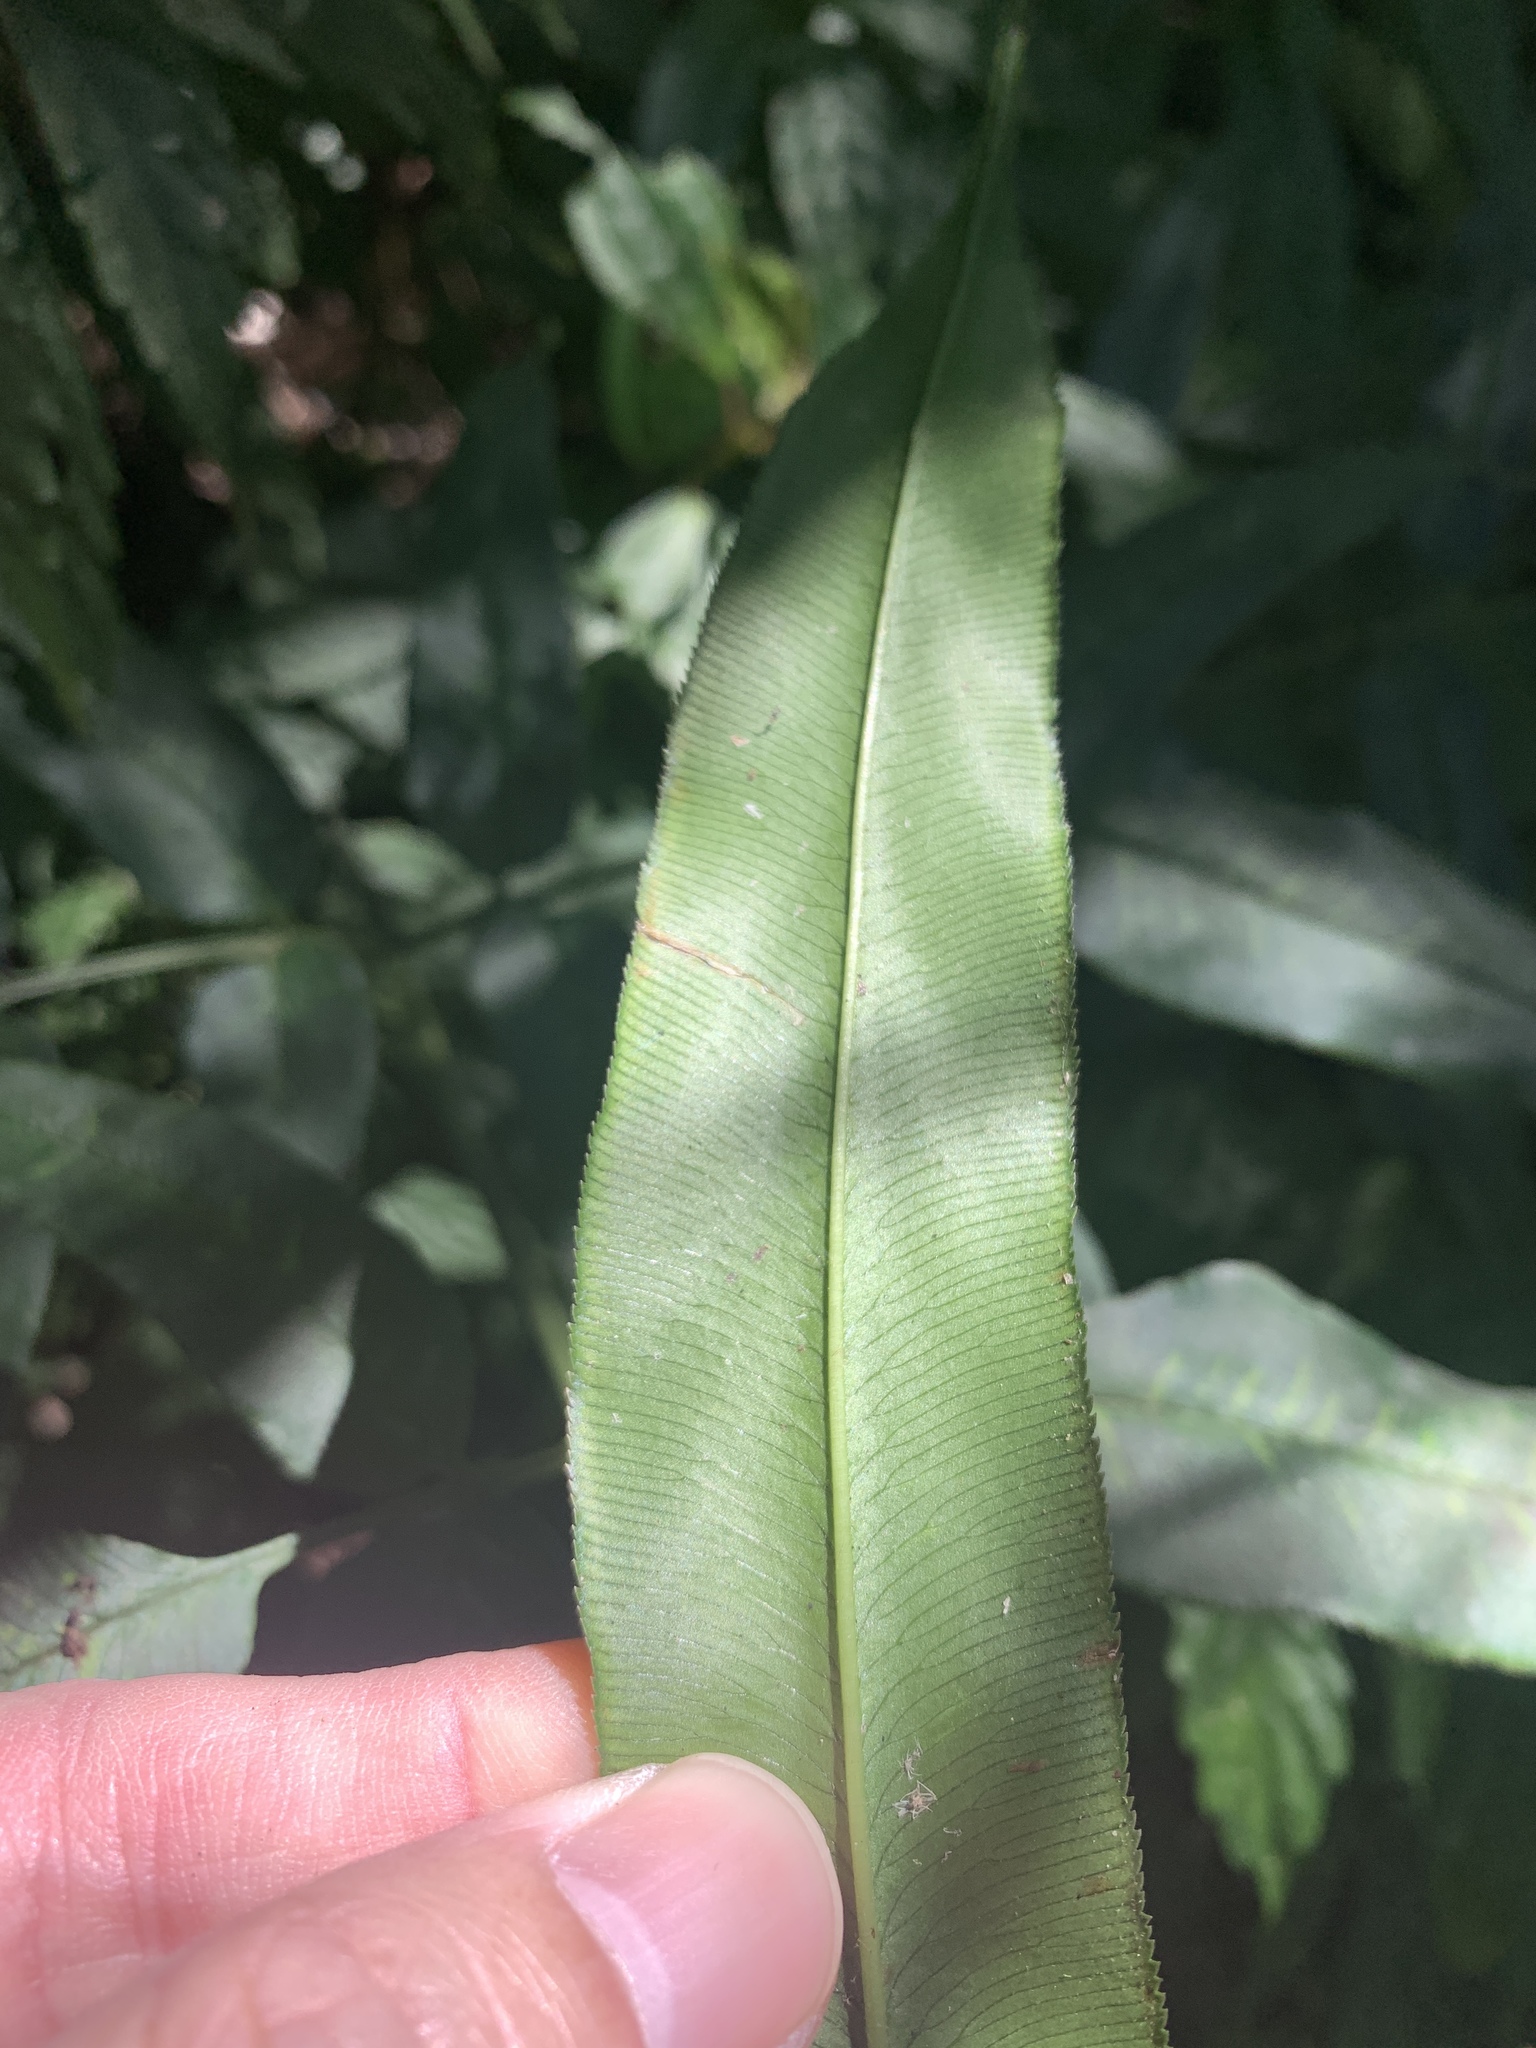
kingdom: Plantae
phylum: Tracheophyta
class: Polypodiopsida
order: Polypodiales
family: Pteridaceae
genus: Coniogramme
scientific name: Coniogramme intermedia
